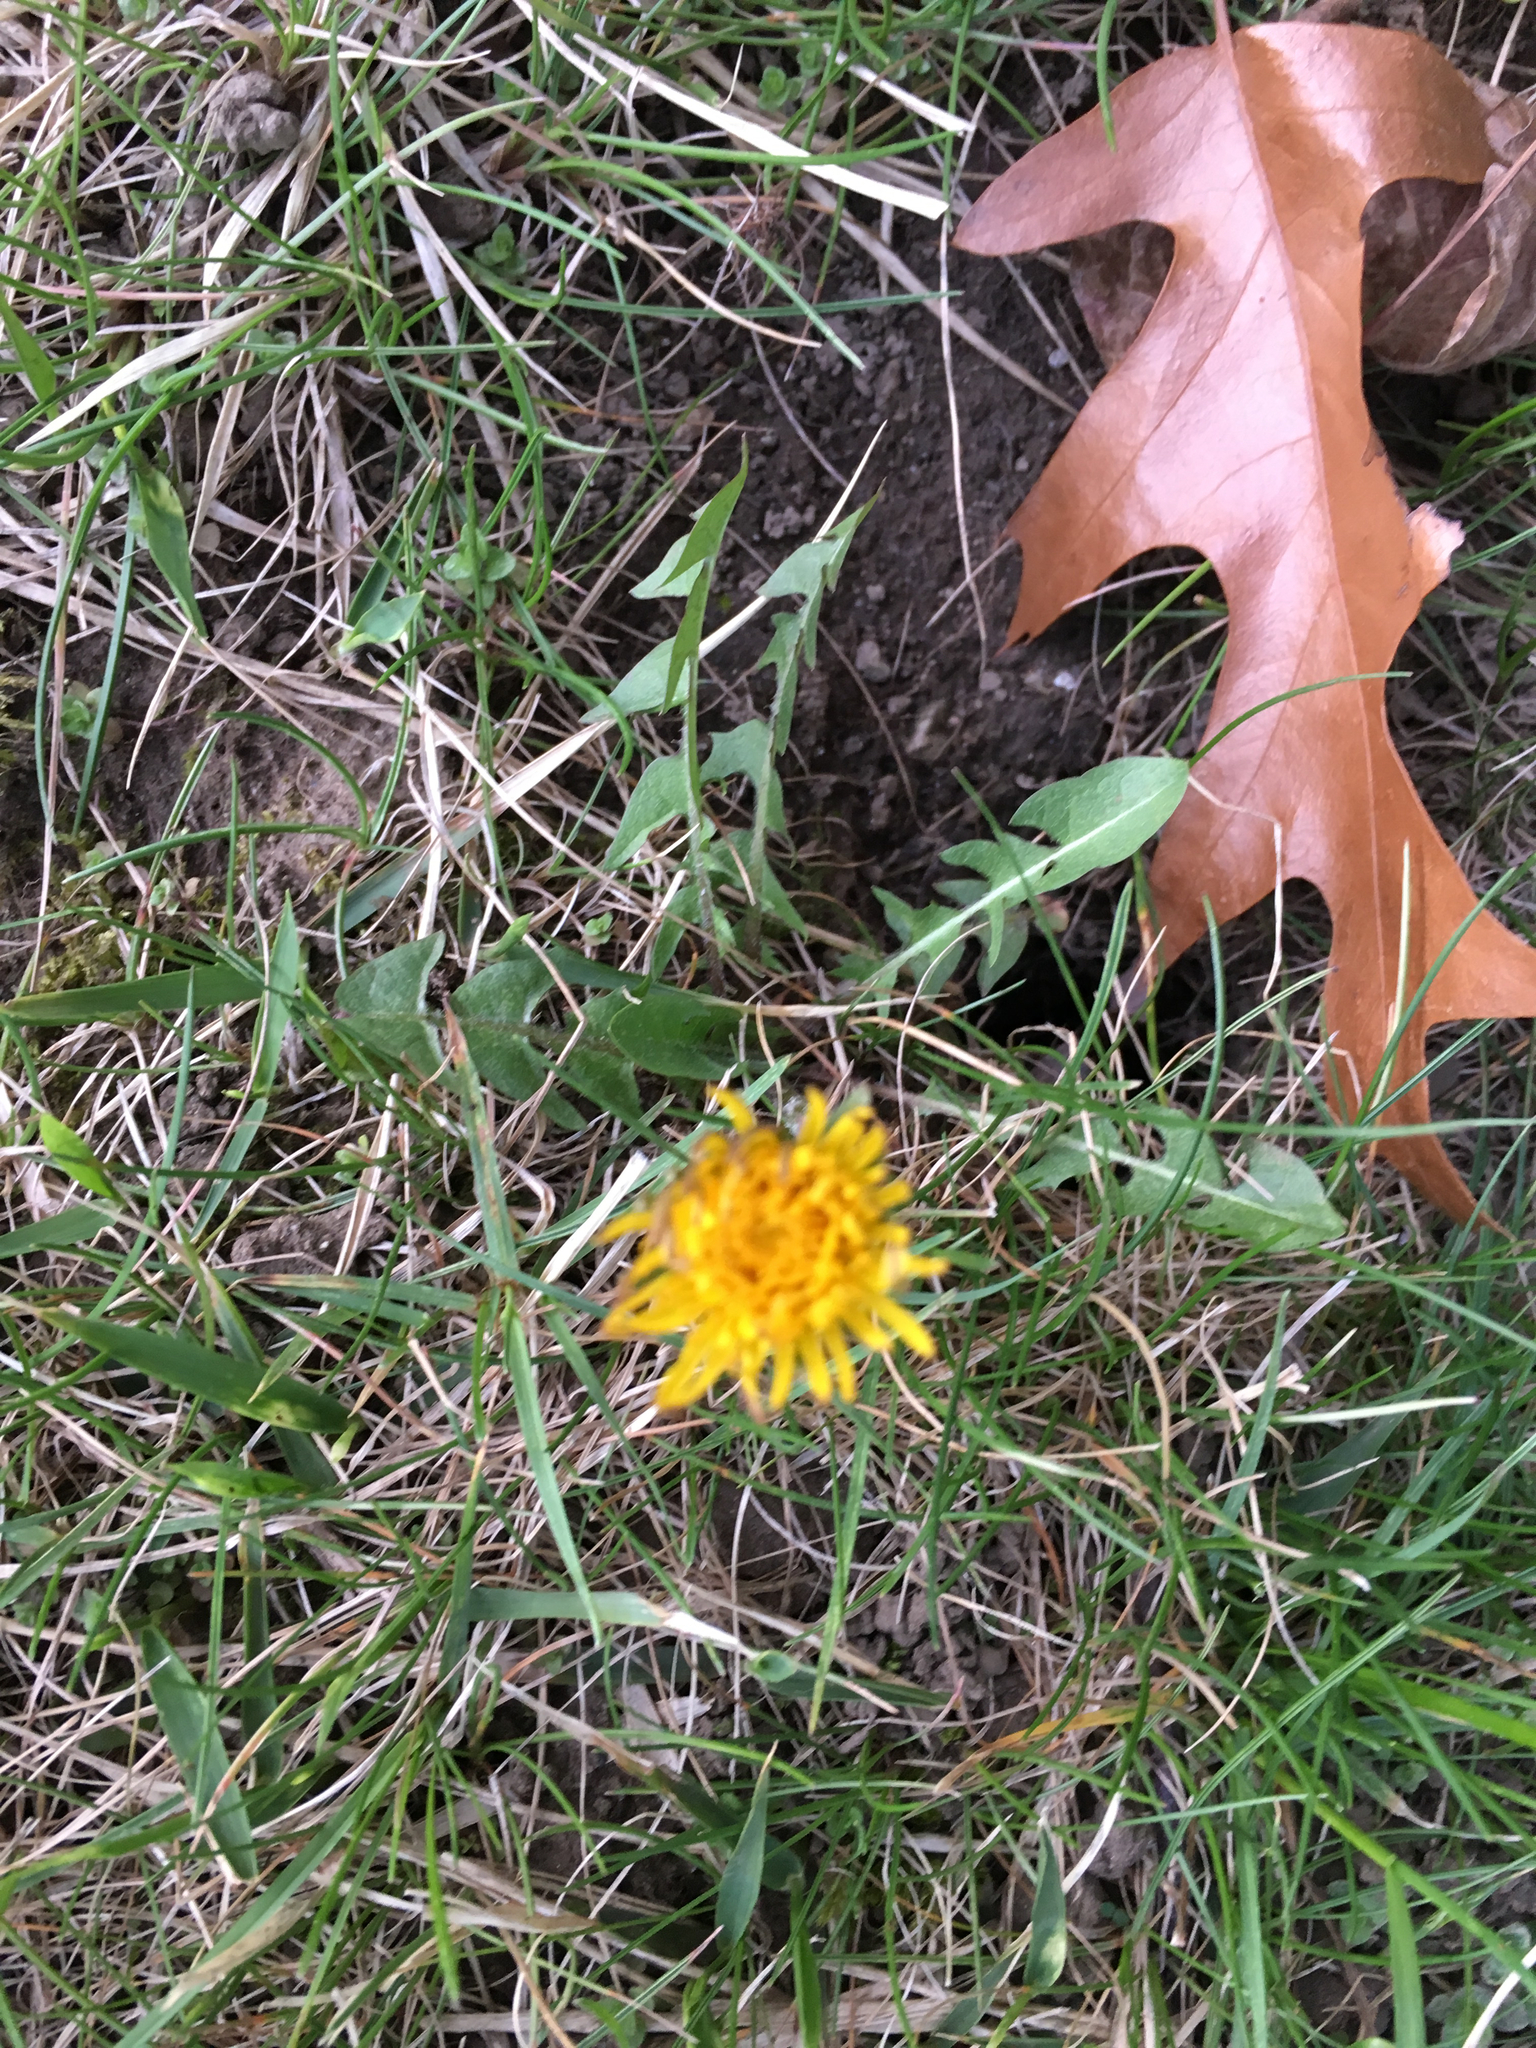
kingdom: Plantae
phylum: Tracheophyta
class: Magnoliopsida
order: Asterales
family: Asteraceae
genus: Taraxacum
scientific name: Taraxacum officinale
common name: Common dandelion
